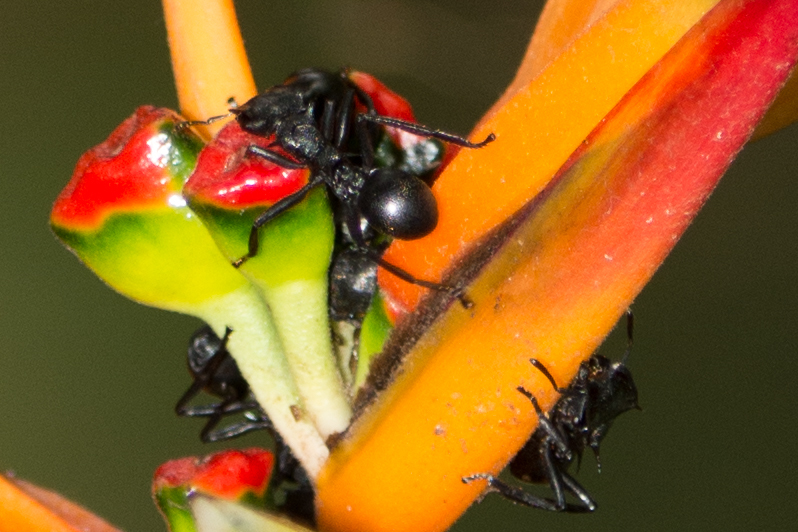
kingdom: Animalia
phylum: Arthropoda
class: Insecta
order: Hymenoptera
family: Formicidae
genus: Cephalotes
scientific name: Cephalotes atratus
